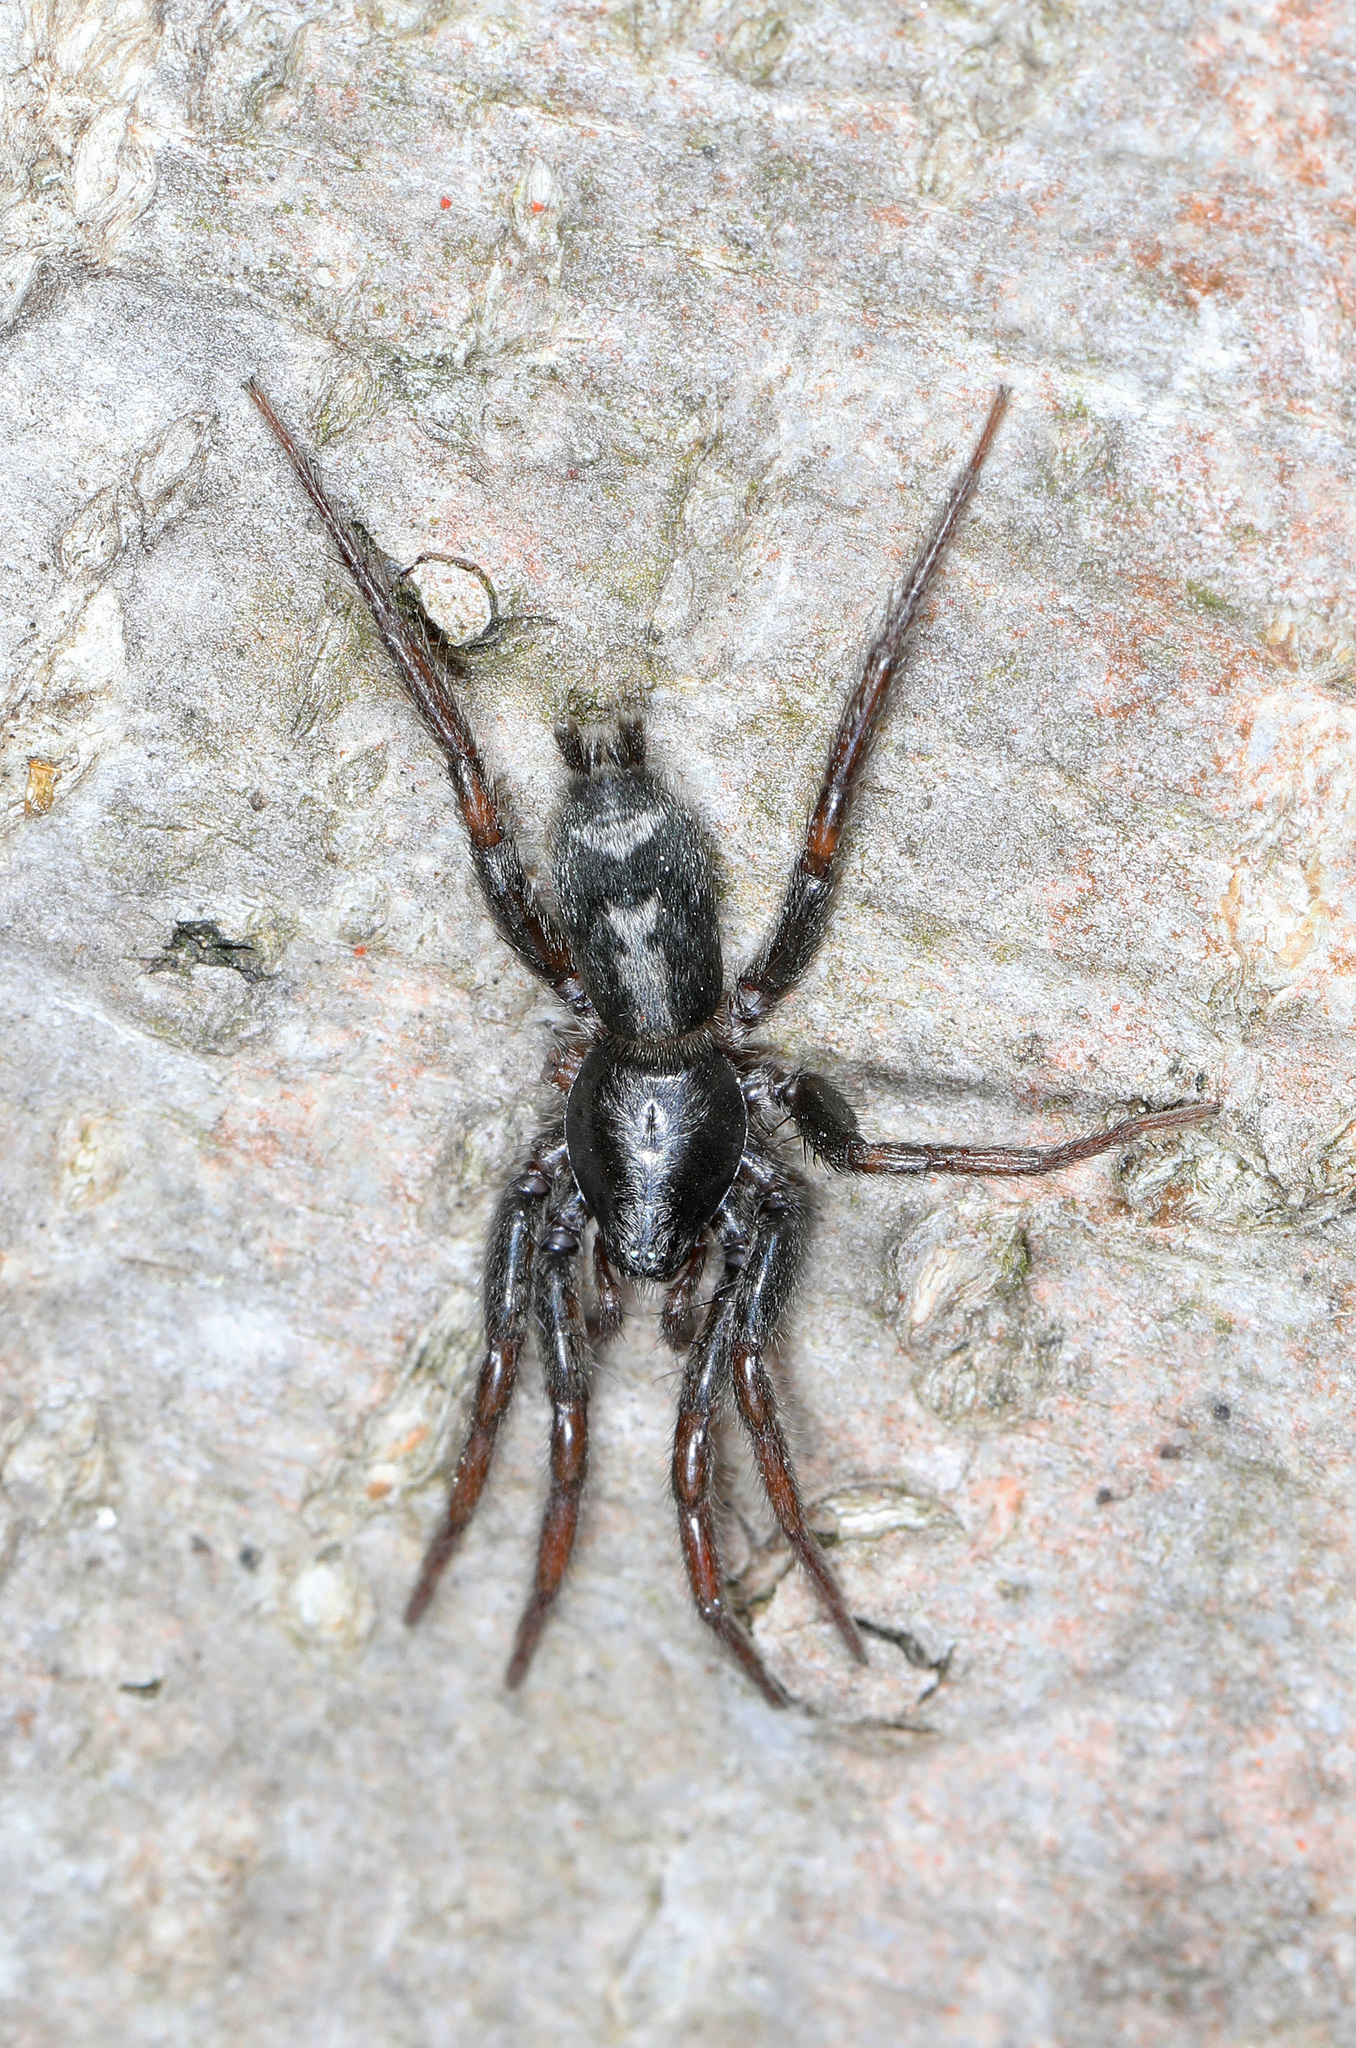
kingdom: Animalia
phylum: Arthropoda
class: Arachnida
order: Araneae
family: Gnaphosidae
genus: Herpyllus
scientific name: Herpyllus ecclesiasticus
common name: Eastern parson spider
